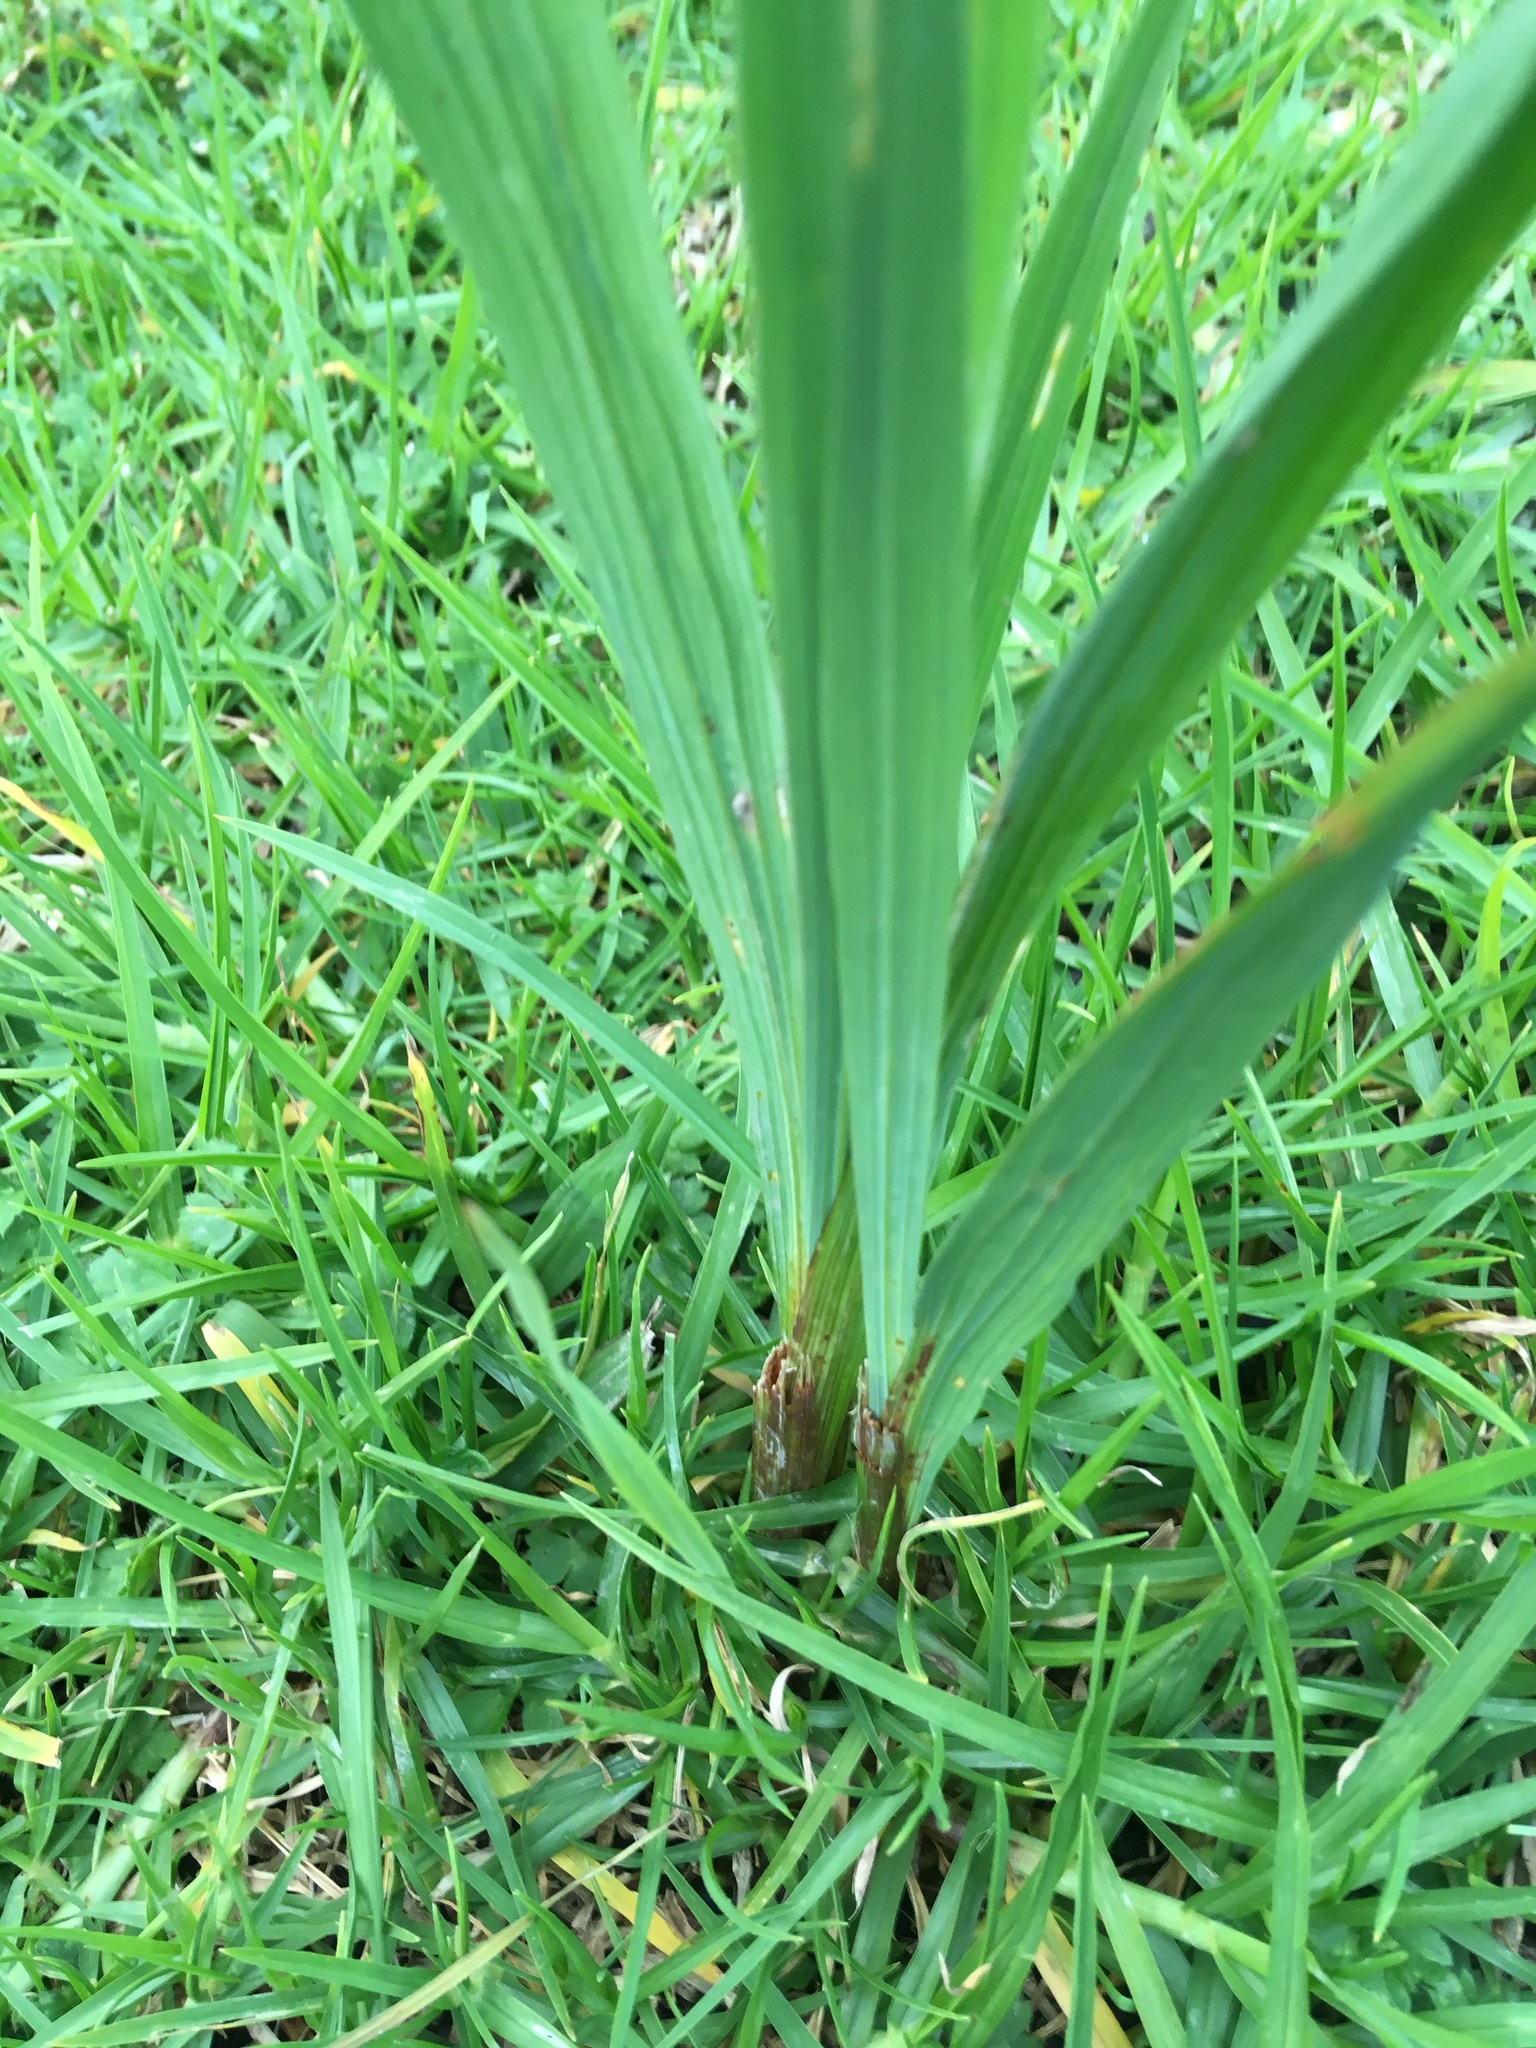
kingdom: Plantae
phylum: Tracheophyta
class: Liliopsida
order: Asparagales
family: Iridaceae
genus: Crocosmia
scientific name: Crocosmia crocosmiiflora
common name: Montbretia
